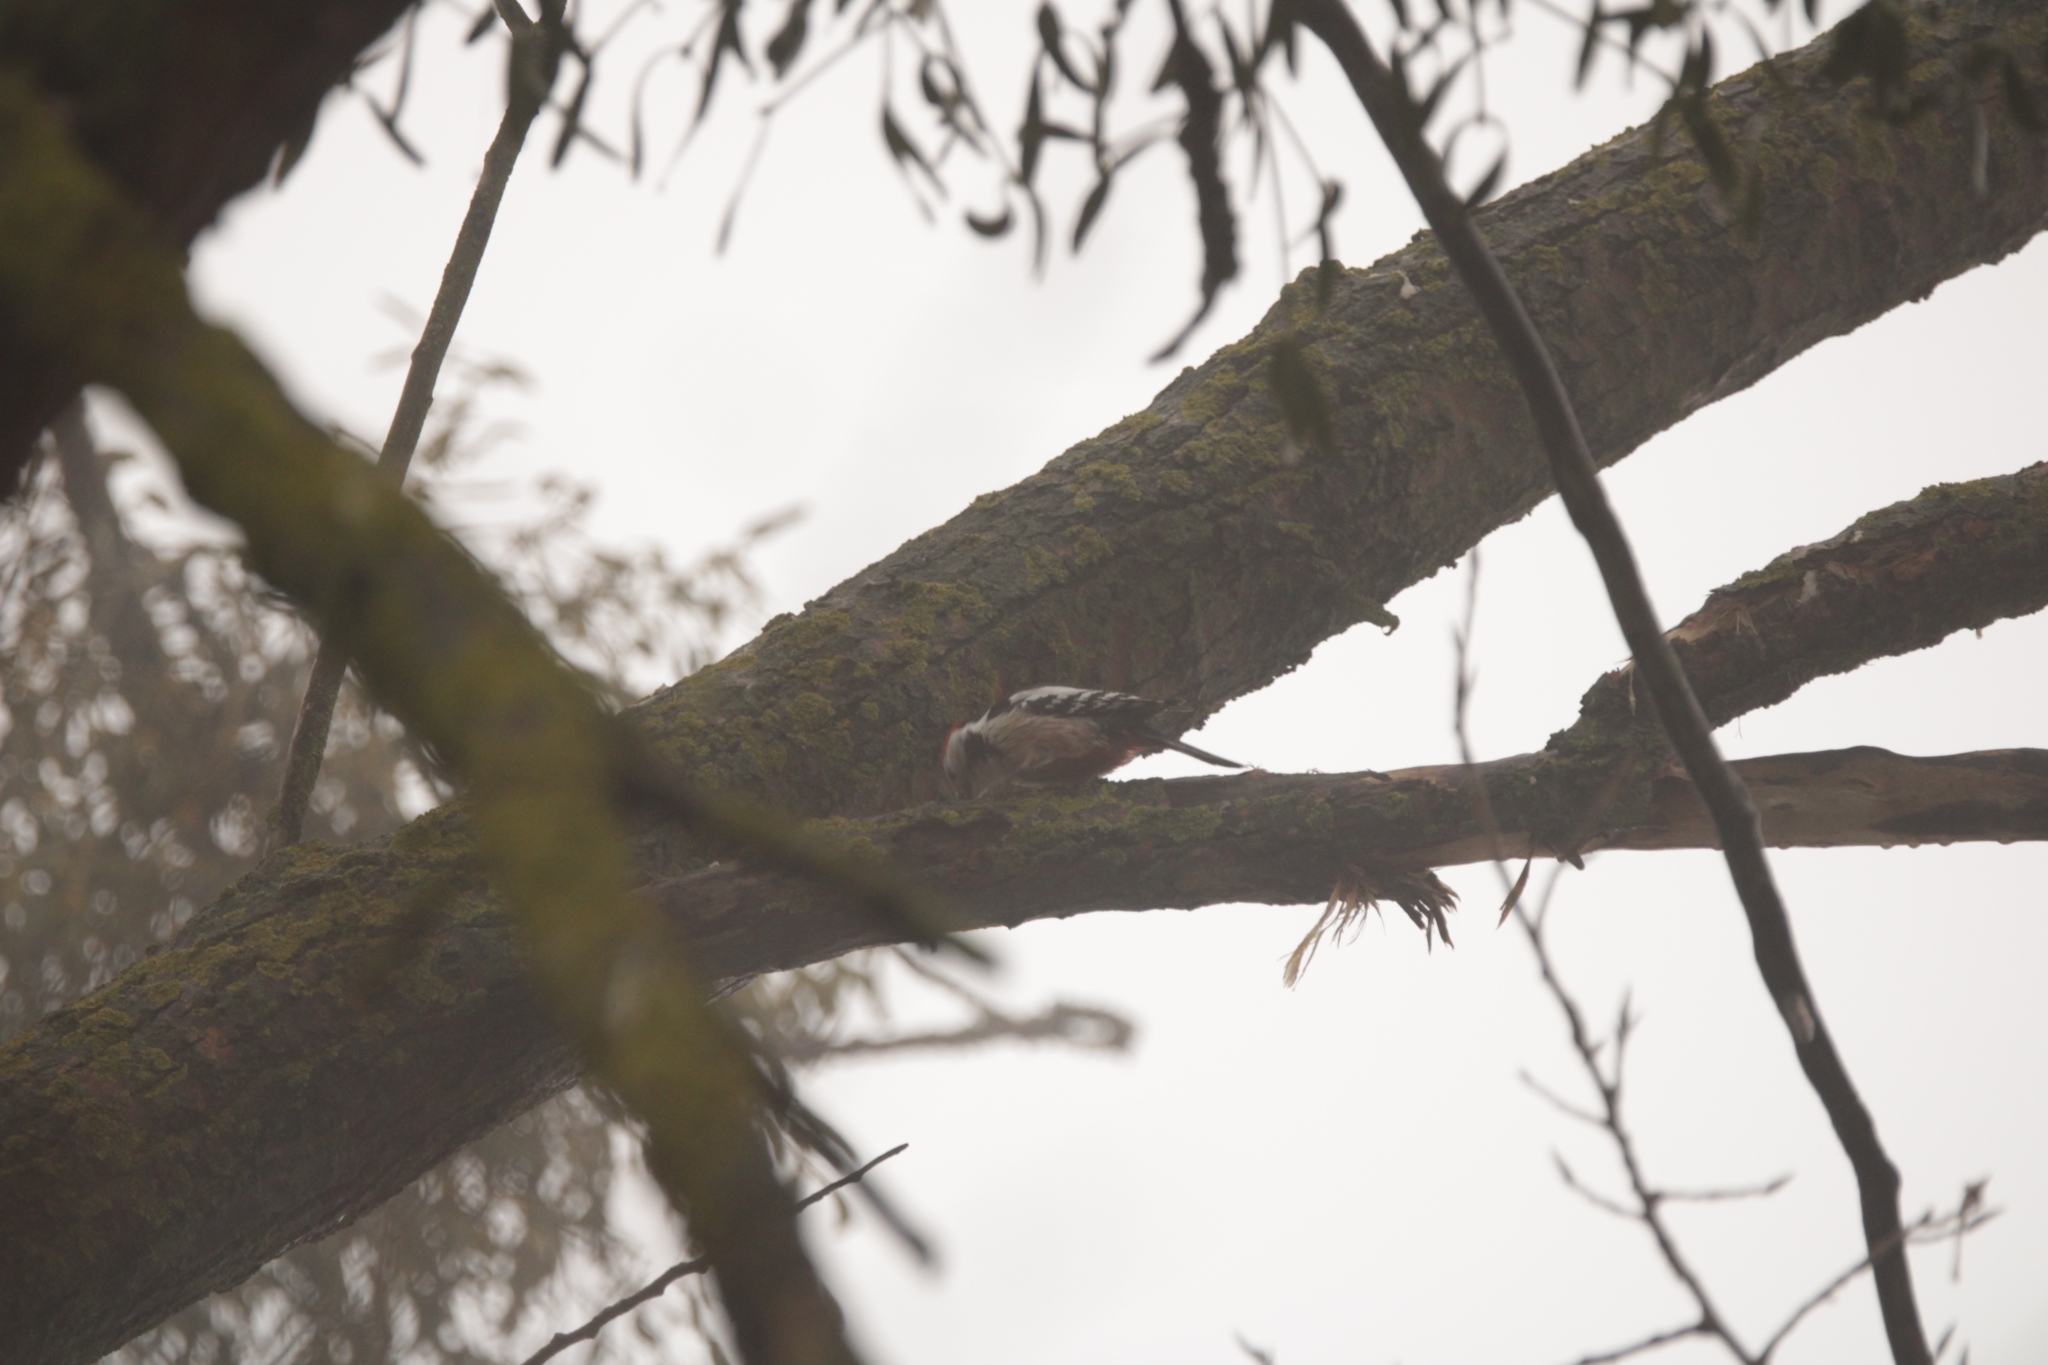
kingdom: Animalia
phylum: Chordata
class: Aves
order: Piciformes
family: Picidae
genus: Dendrocoptes
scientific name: Dendrocoptes medius
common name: Middle spotted woodpecker
